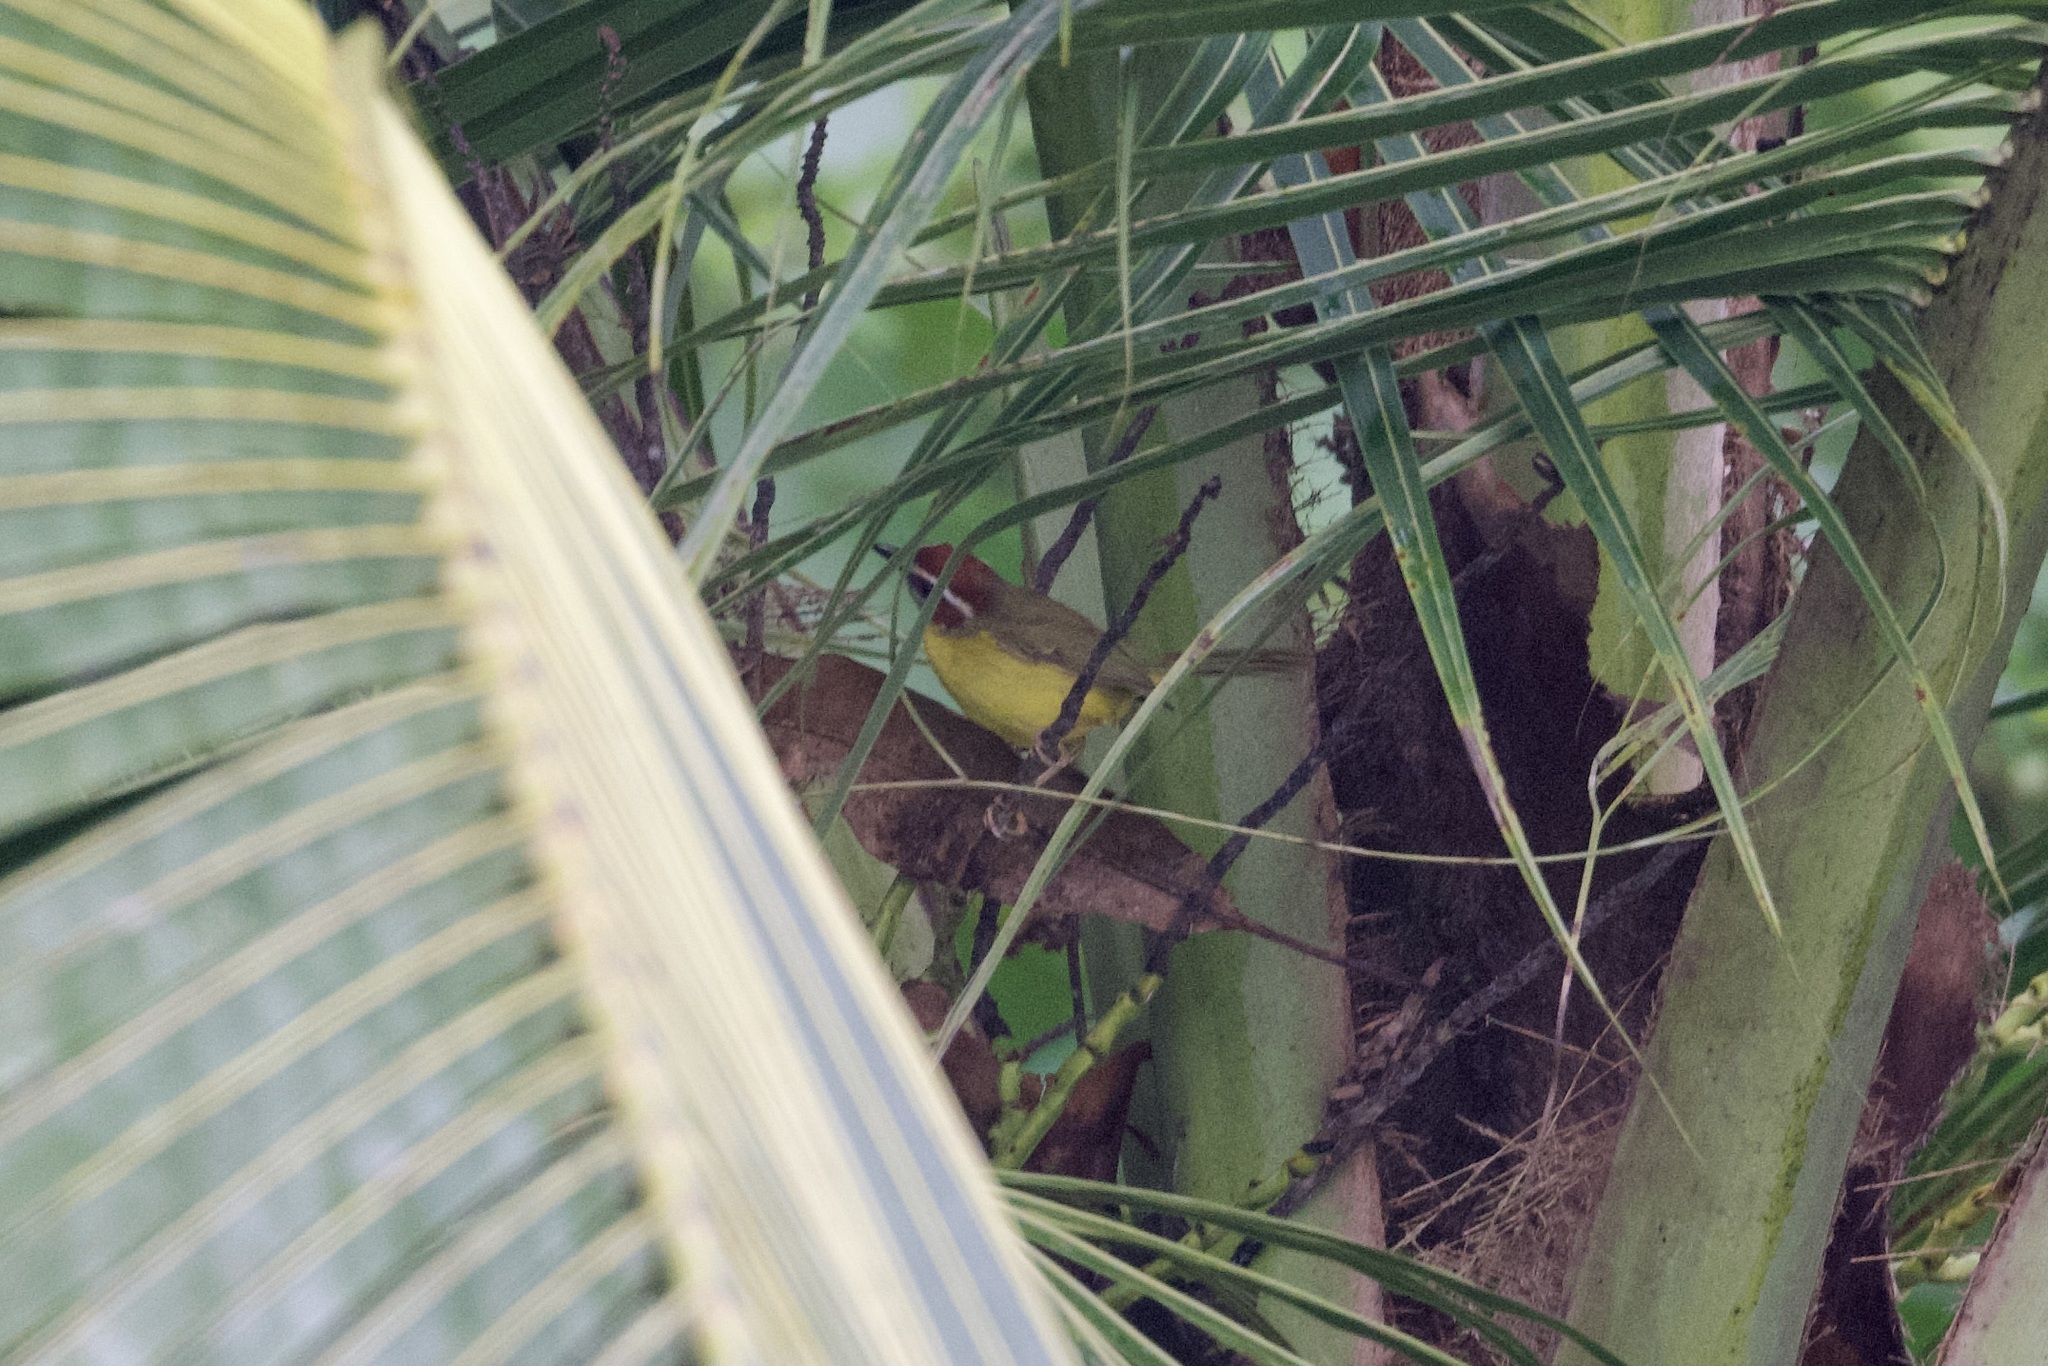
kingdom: Animalia
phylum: Chordata
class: Aves
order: Passeriformes
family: Parulidae
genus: Basileuterus
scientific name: Basileuterus rufifrons
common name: Rufous-capped warbler
